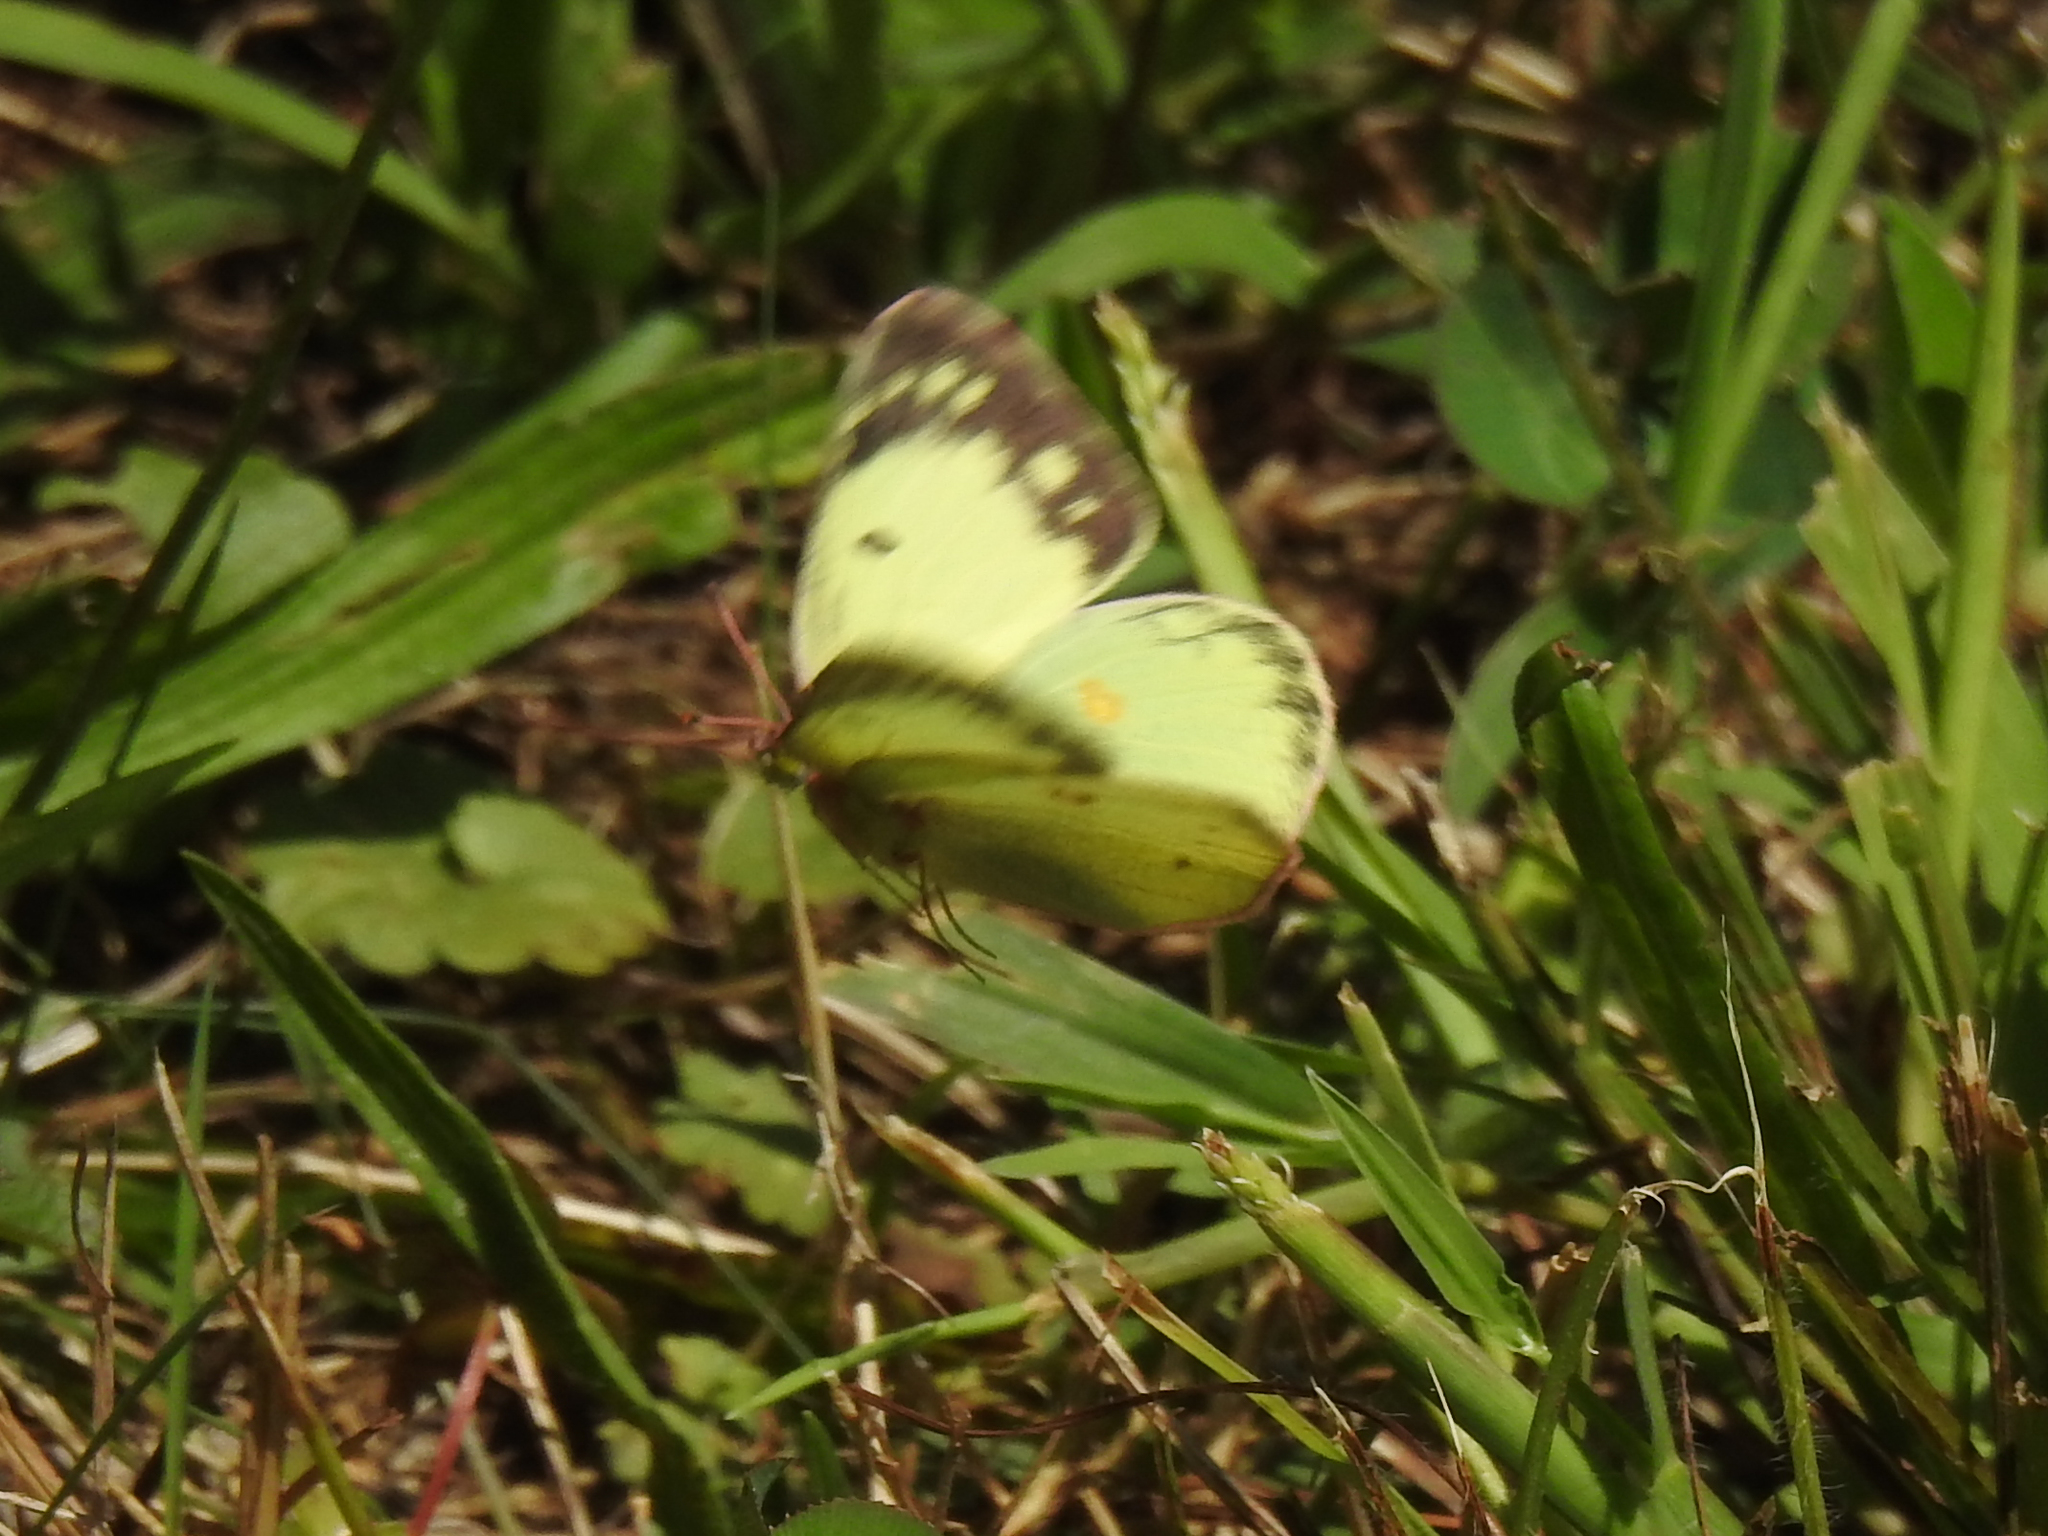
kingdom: Animalia
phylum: Arthropoda
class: Insecta
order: Lepidoptera
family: Pieridae
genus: Colias
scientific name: Colias philodice
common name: Clouded sulphur
